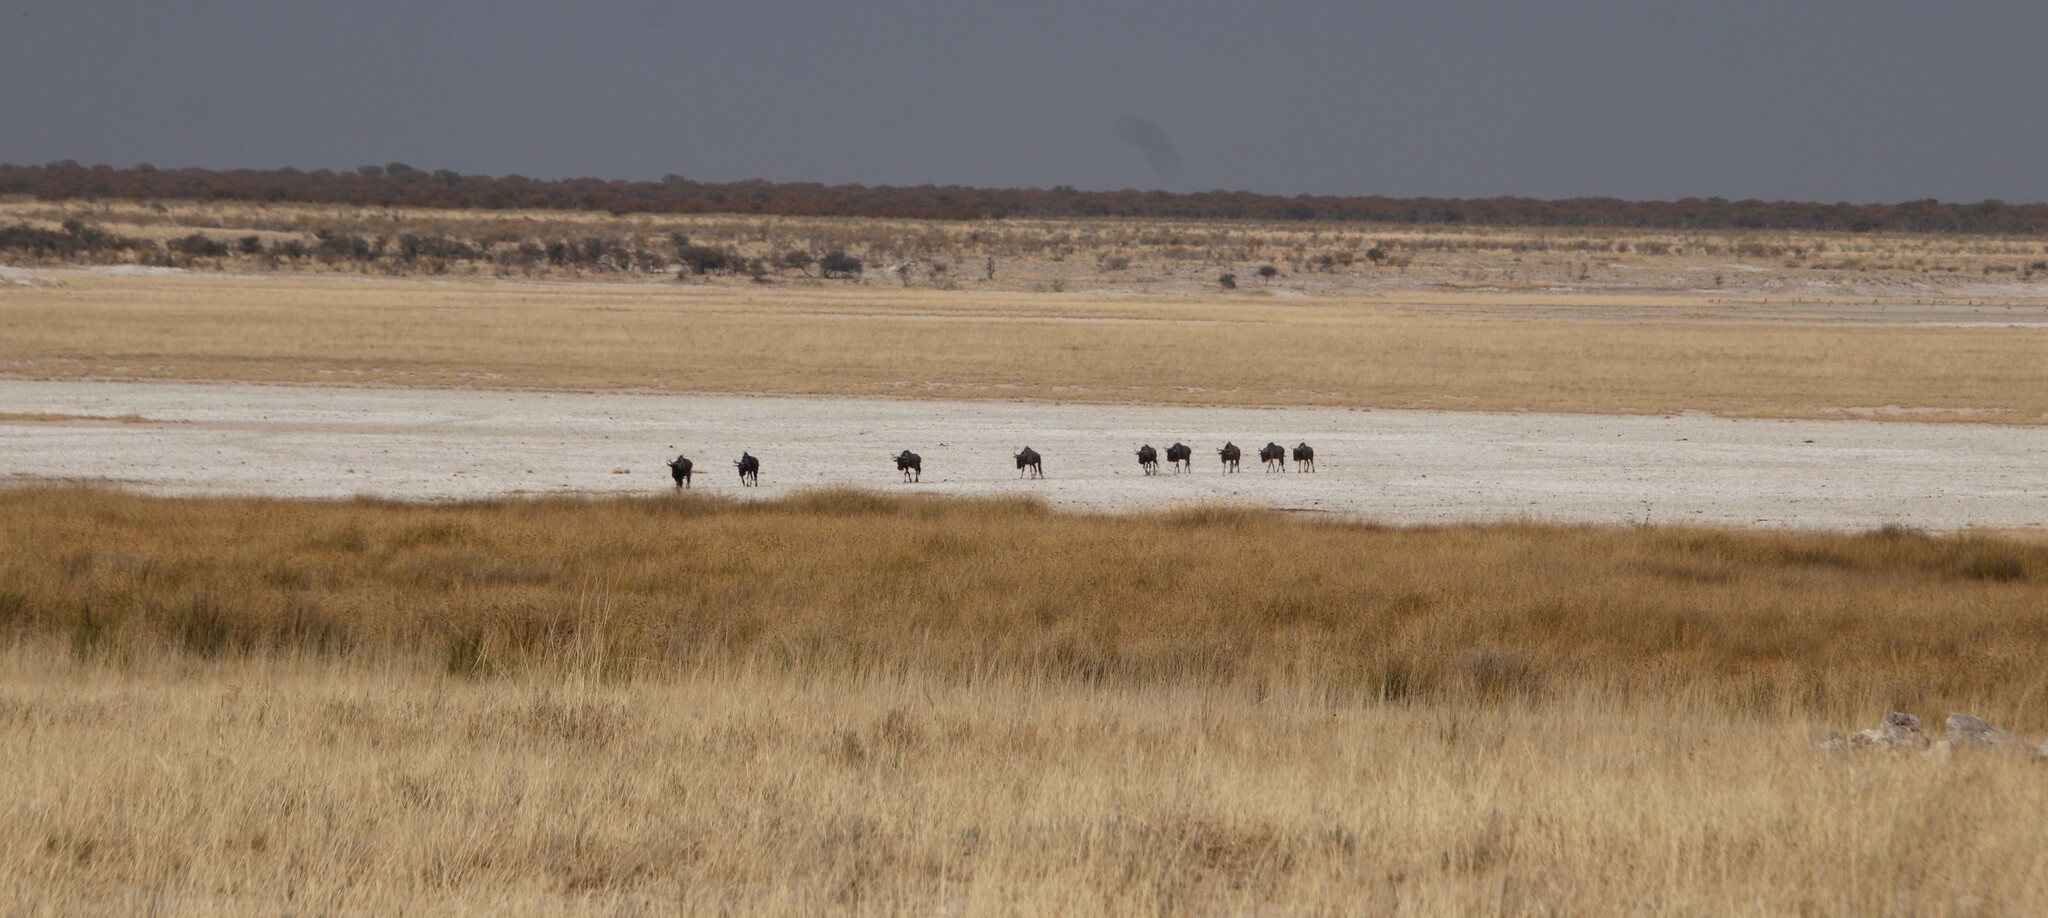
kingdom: Animalia
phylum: Chordata
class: Mammalia
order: Artiodactyla
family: Bovidae
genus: Connochaetes
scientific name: Connochaetes taurinus
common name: Blue wildebeest
